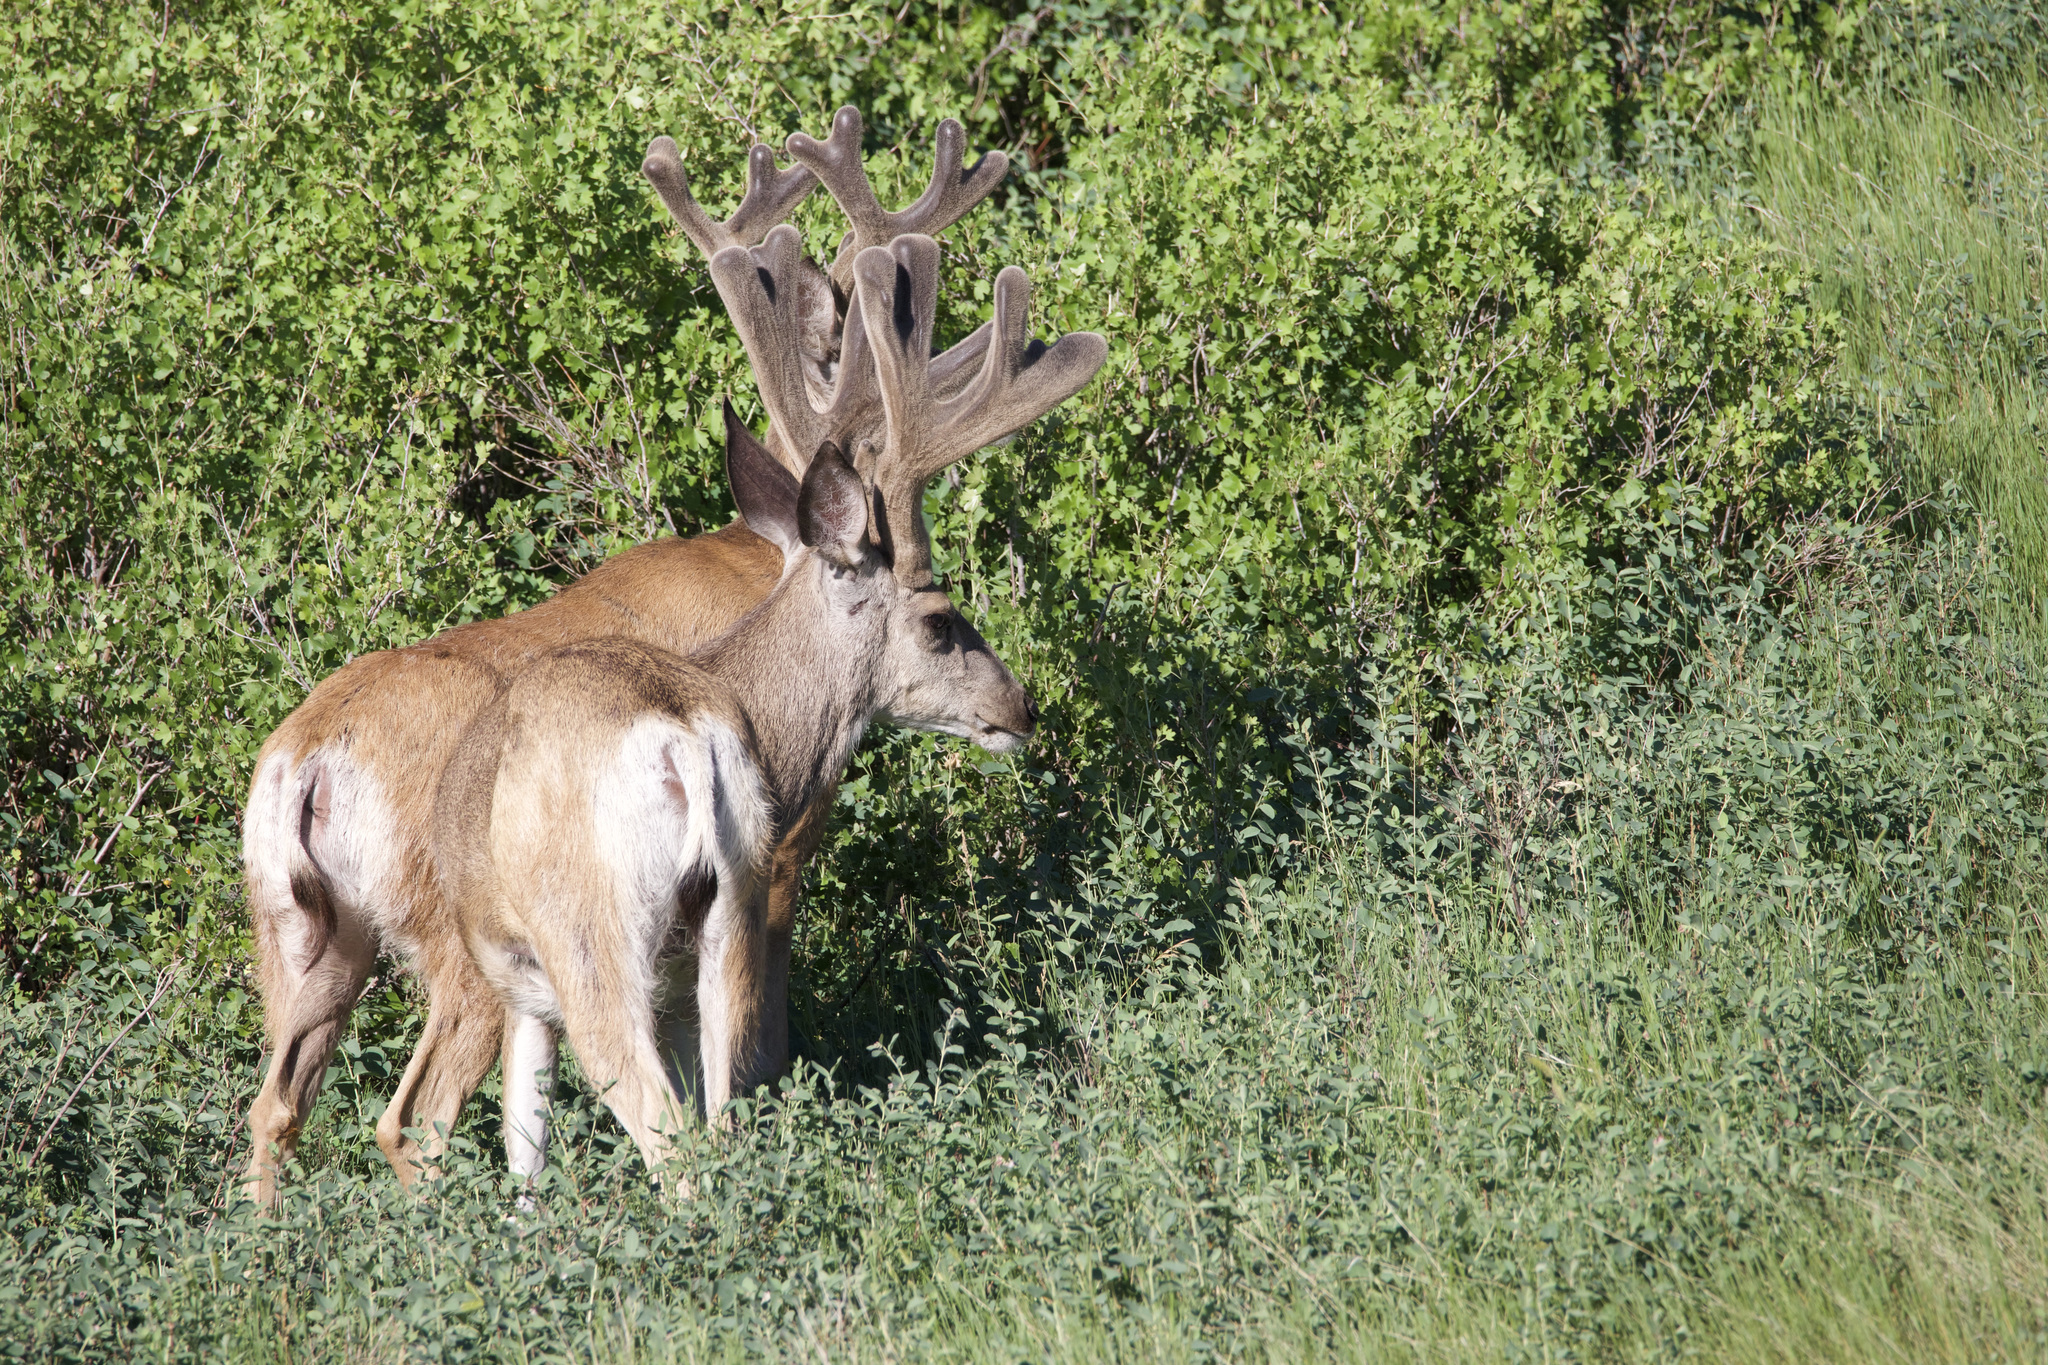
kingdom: Animalia
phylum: Chordata
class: Mammalia
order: Artiodactyla
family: Cervidae
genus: Odocoileus
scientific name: Odocoileus hemionus
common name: Mule deer
